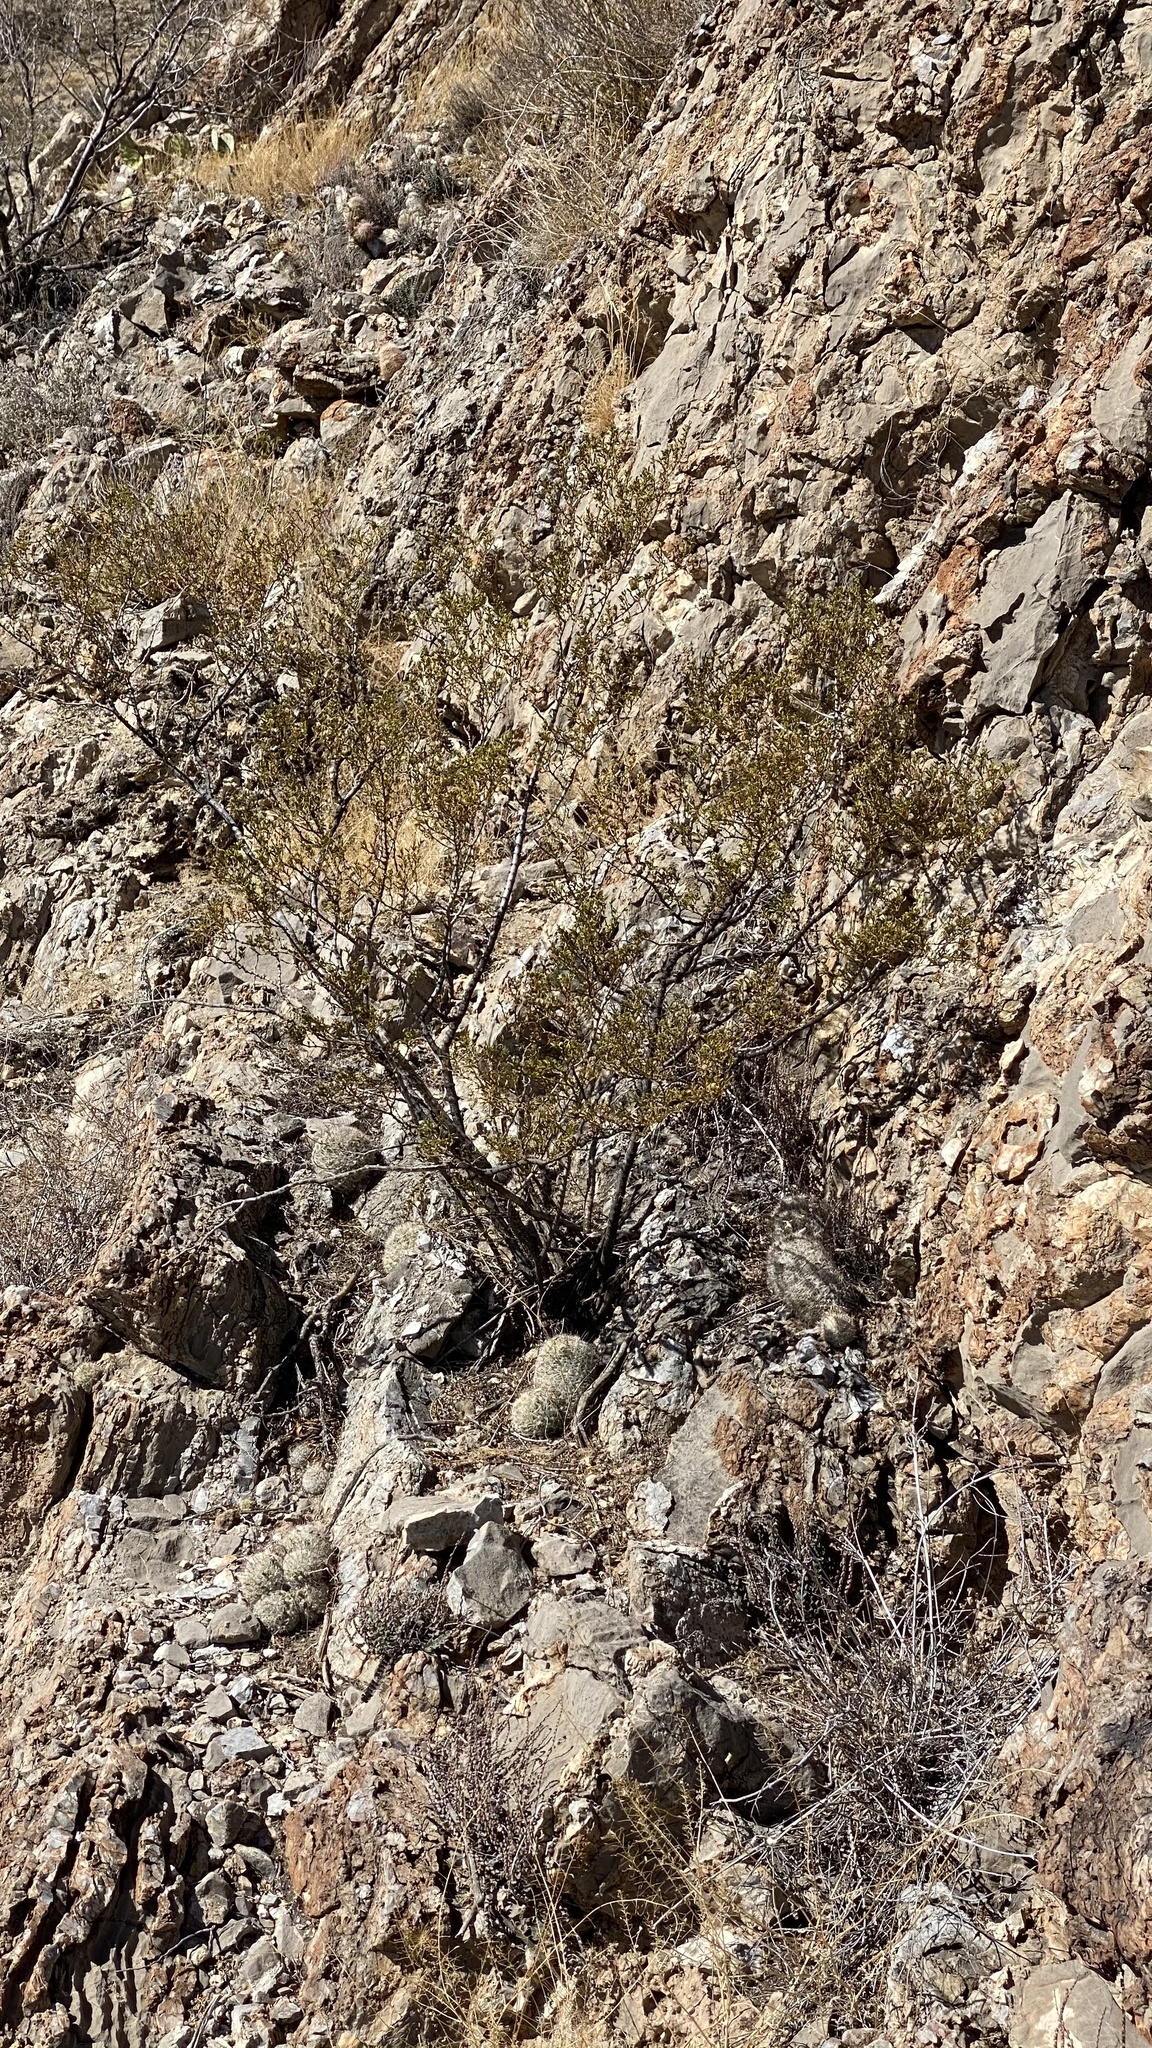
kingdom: Plantae
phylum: Tracheophyta
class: Magnoliopsida
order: Zygophyllales
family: Zygophyllaceae
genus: Larrea
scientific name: Larrea tridentata
